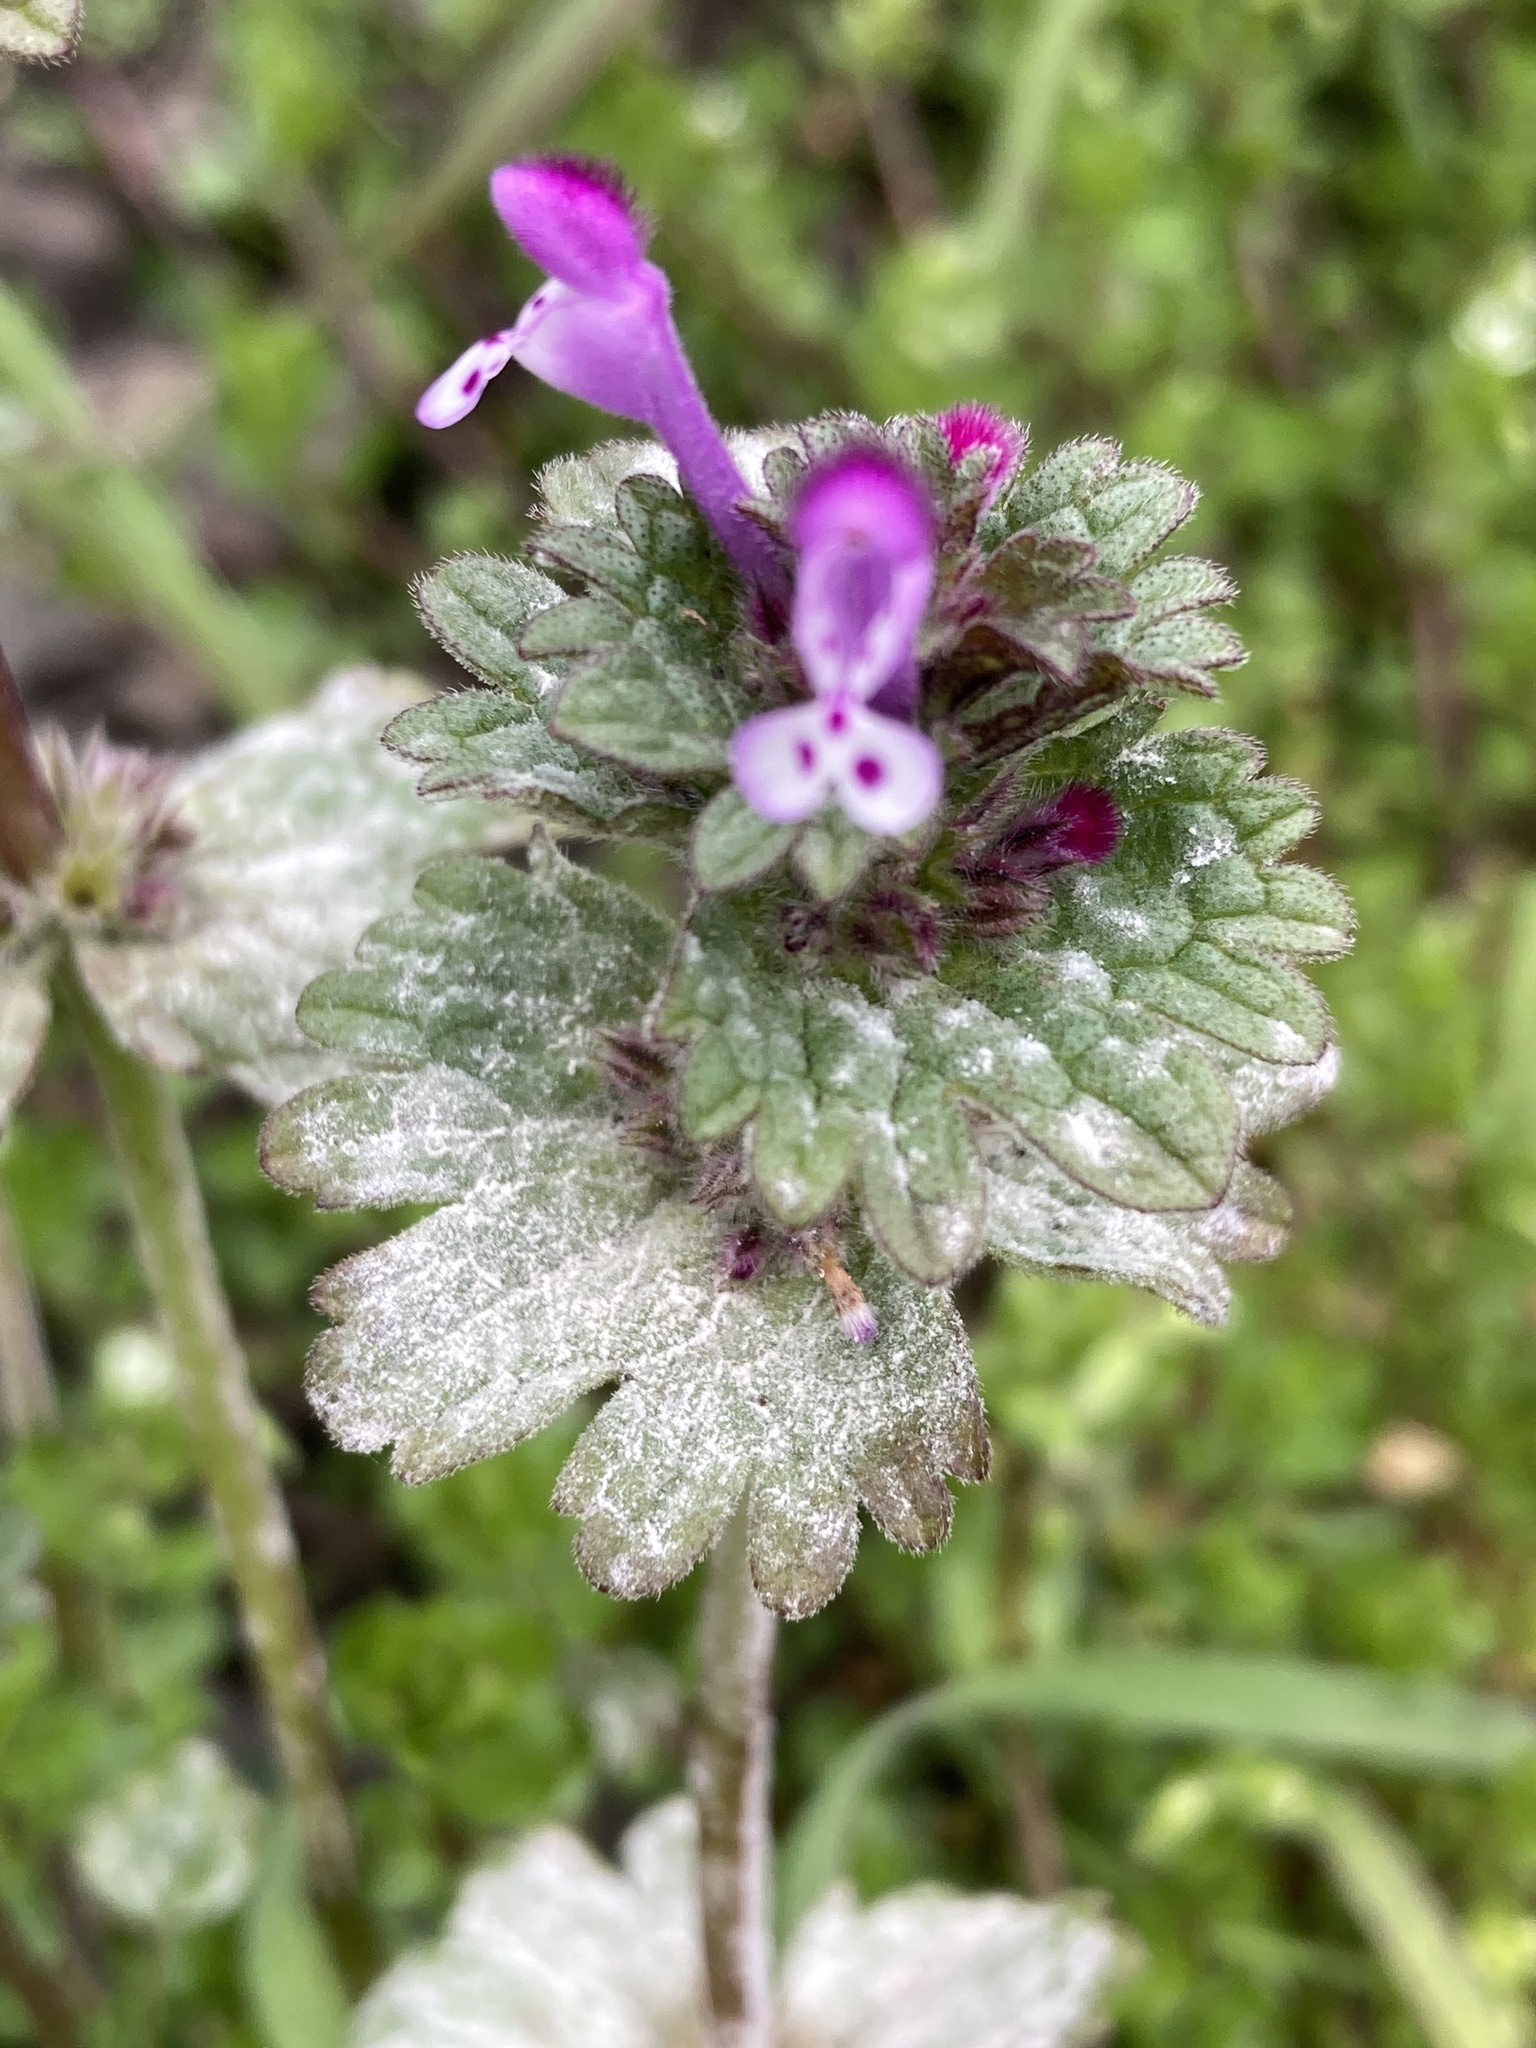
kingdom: Plantae
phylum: Tracheophyta
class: Magnoliopsida
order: Lamiales
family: Lamiaceae
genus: Lamium
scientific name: Lamium amplexicaule
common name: Henbit dead-nettle
